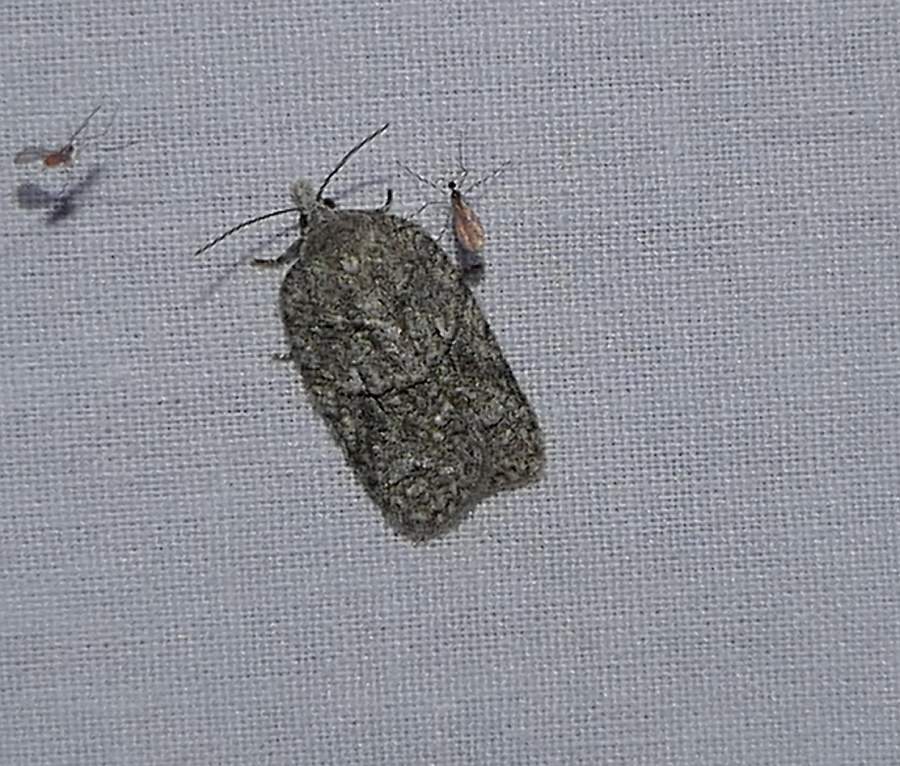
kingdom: Animalia
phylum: Arthropoda
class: Insecta
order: Lepidoptera
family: Tortricidae
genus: Acleris
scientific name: Acleris nigrolinea
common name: Black-lined acleris
